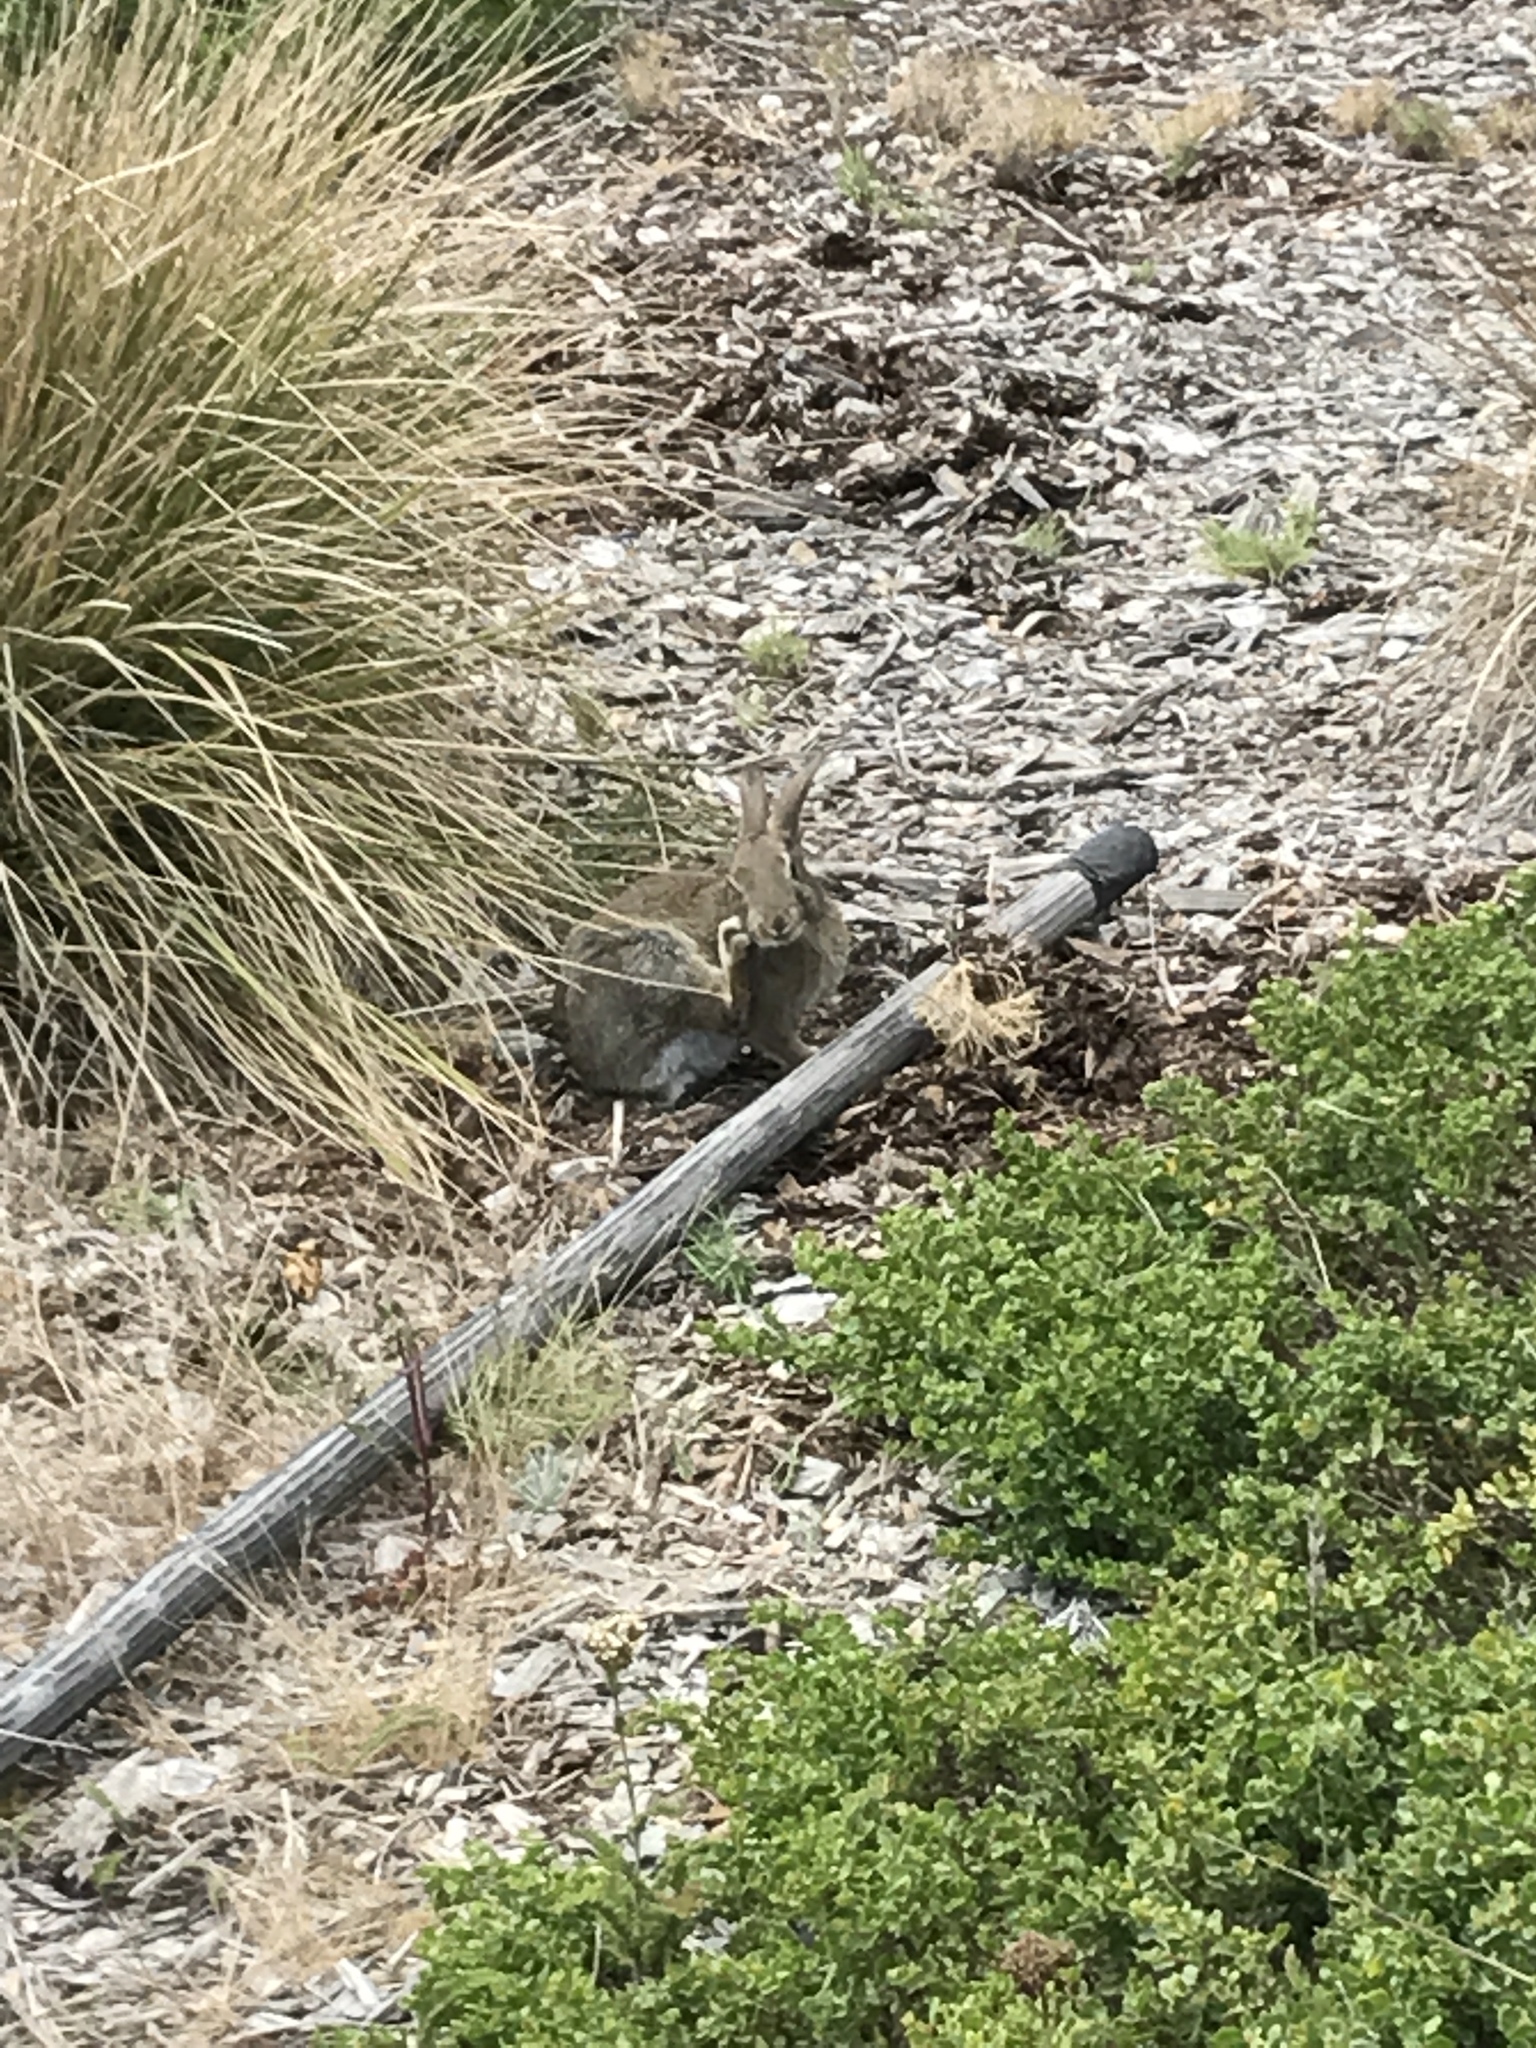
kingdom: Animalia
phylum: Chordata
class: Mammalia
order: Lagomorpha
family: Leporidae
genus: Sylvilagus
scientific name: Sylvilagus bachmani
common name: Brush rabbit
